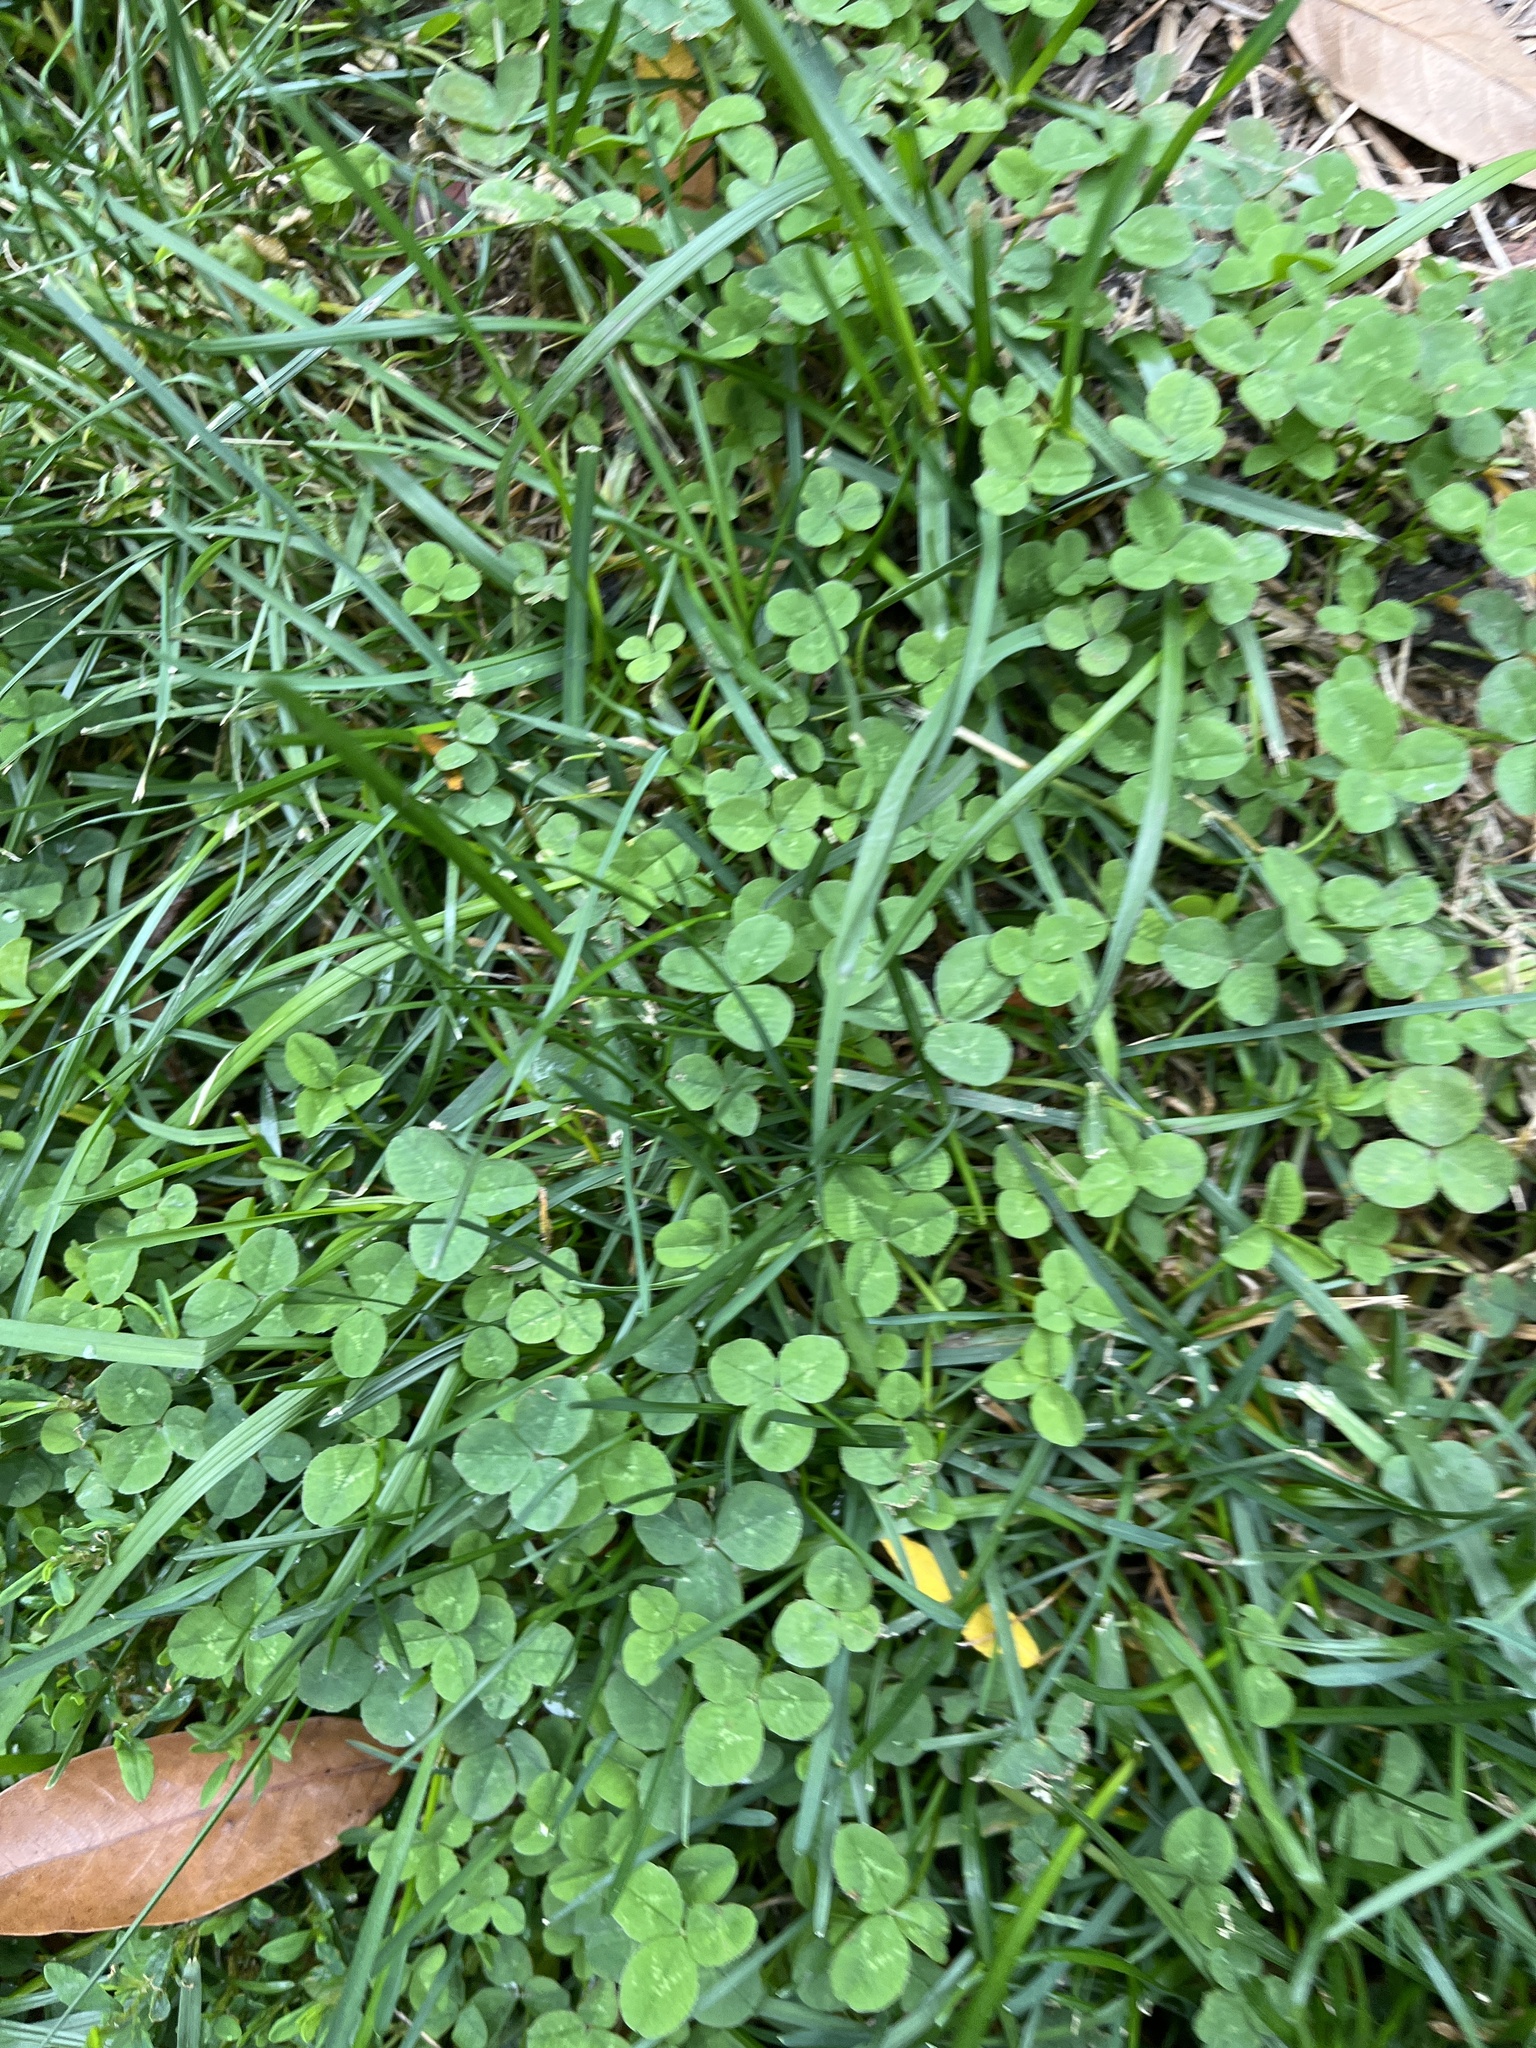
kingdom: Plantae
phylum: Tracheophyta
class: Magnoliopsida
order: Fabales
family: Fabaceae
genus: Trifolium
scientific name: Trifolium repens
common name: White clover
